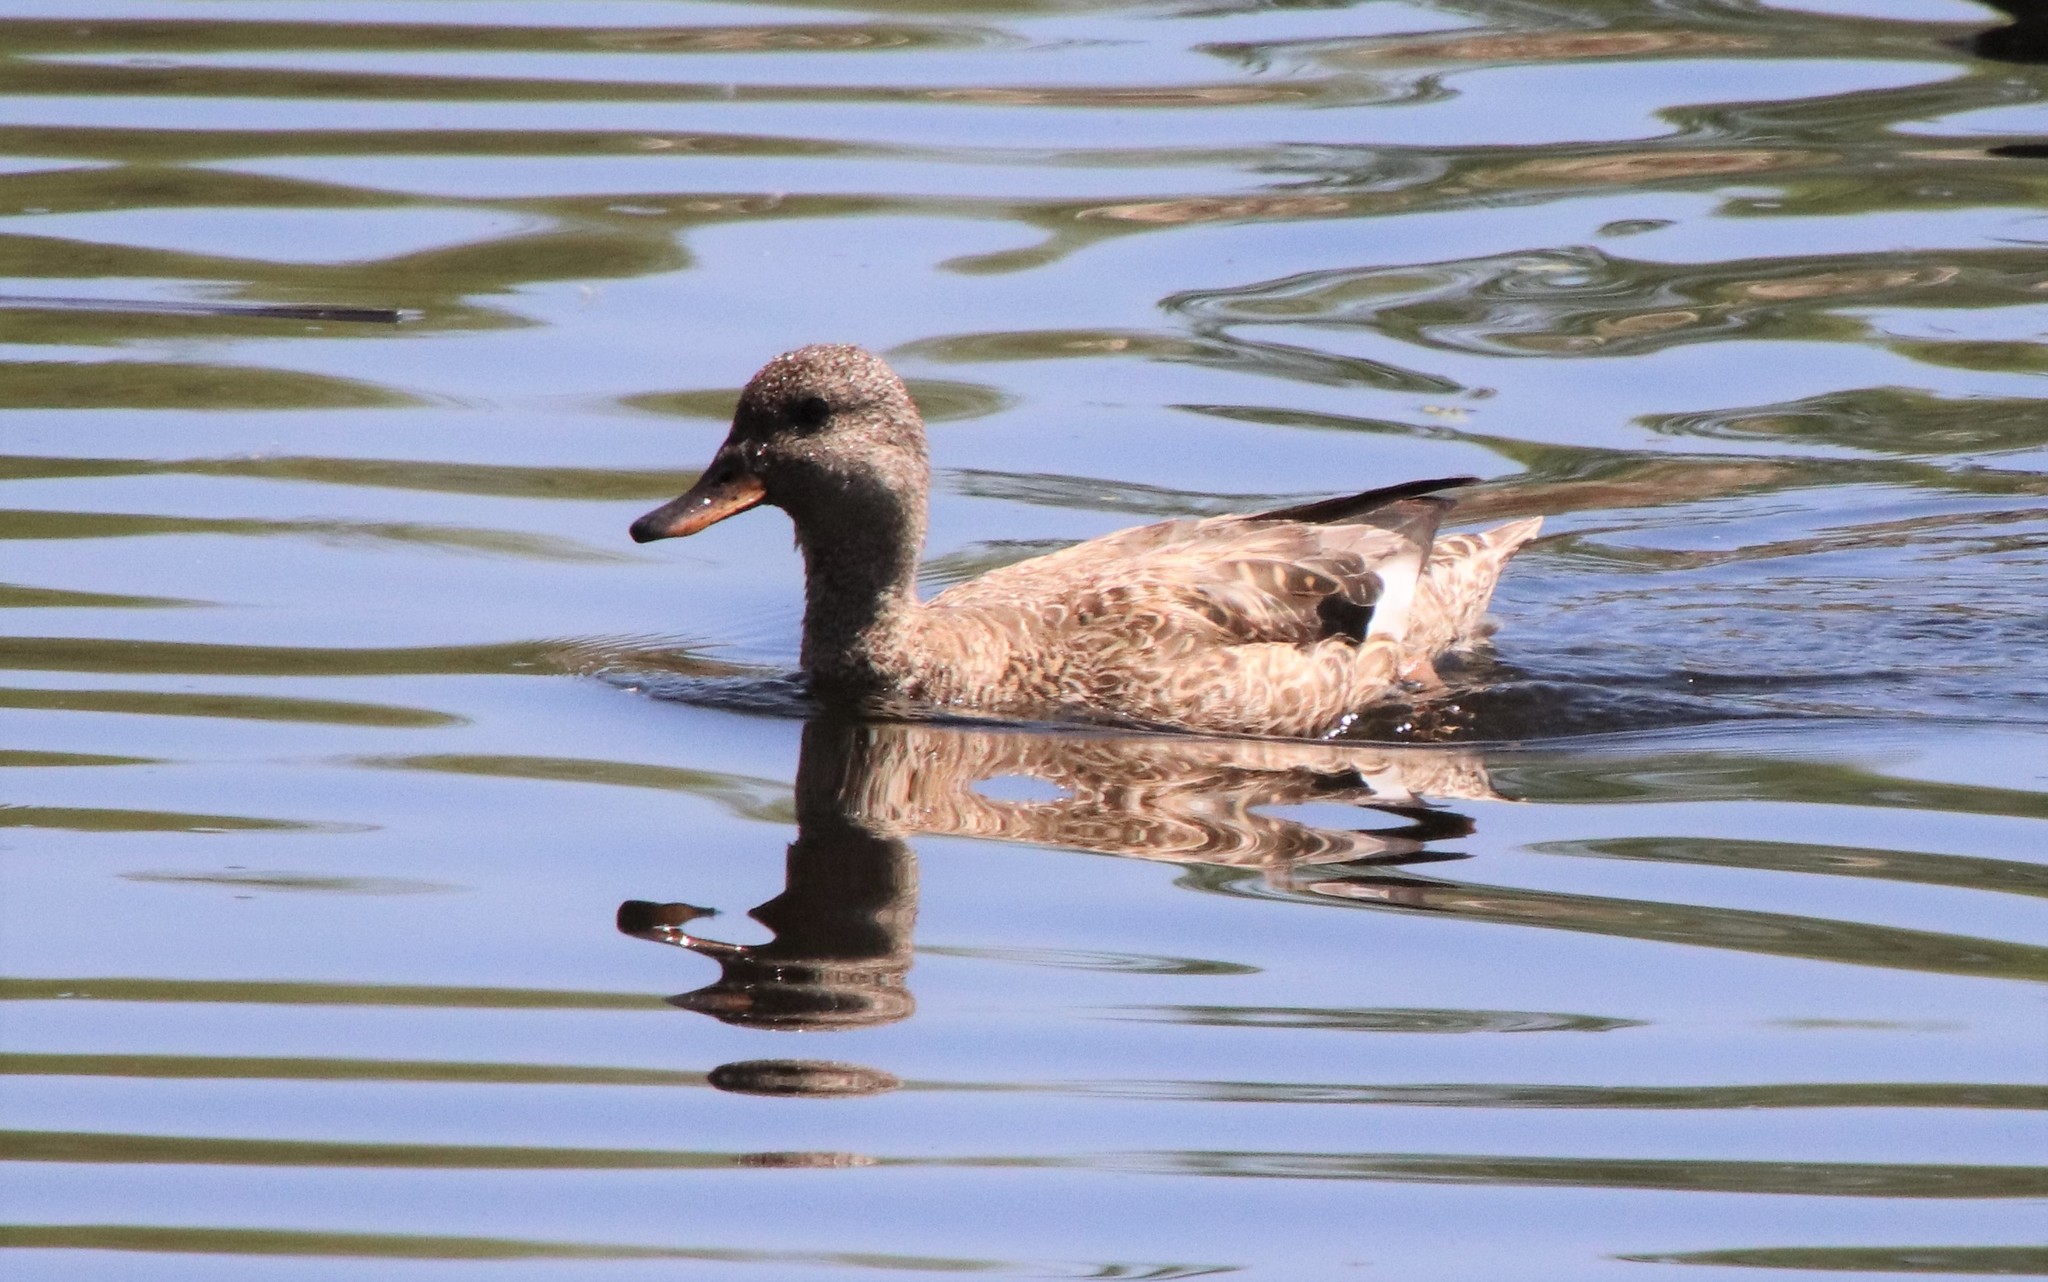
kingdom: Animalia
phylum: Chordata
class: Aves
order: Anseriformes
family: Anatidae
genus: Mareca
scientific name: Mareca strepera
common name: Gadwall
